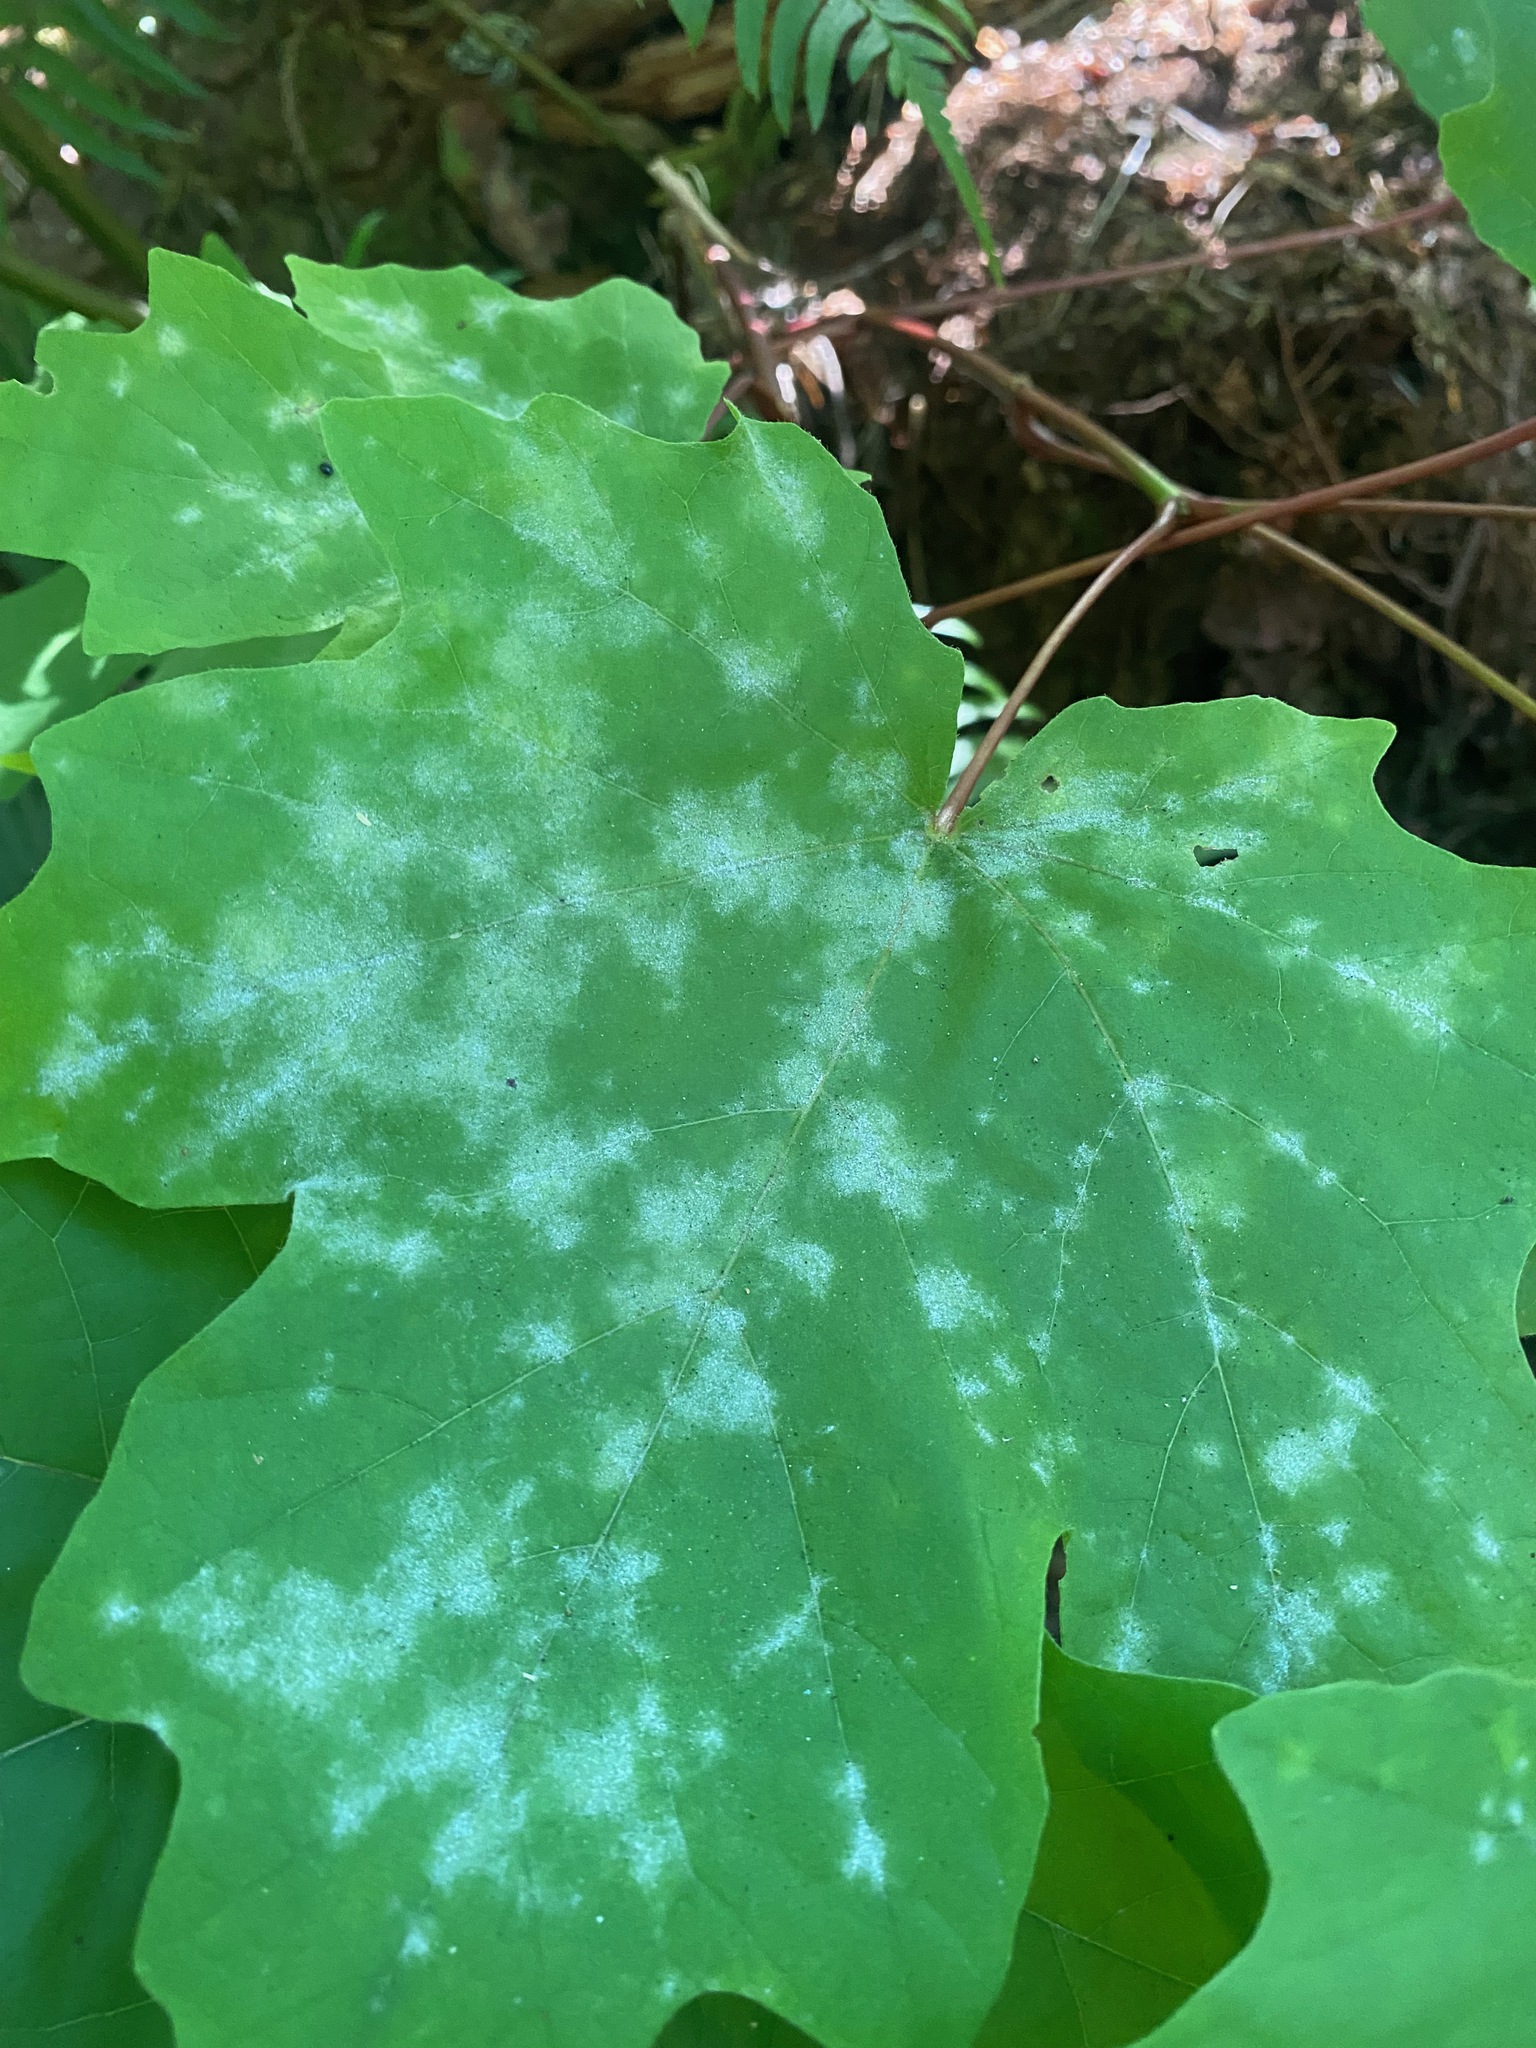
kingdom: Fungi
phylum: Ascomycota
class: Leotiomycetes
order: Helotiales
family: Erysiphaceae
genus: Sawadaea
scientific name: Sawadaea bicornis
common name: Maple mildew
